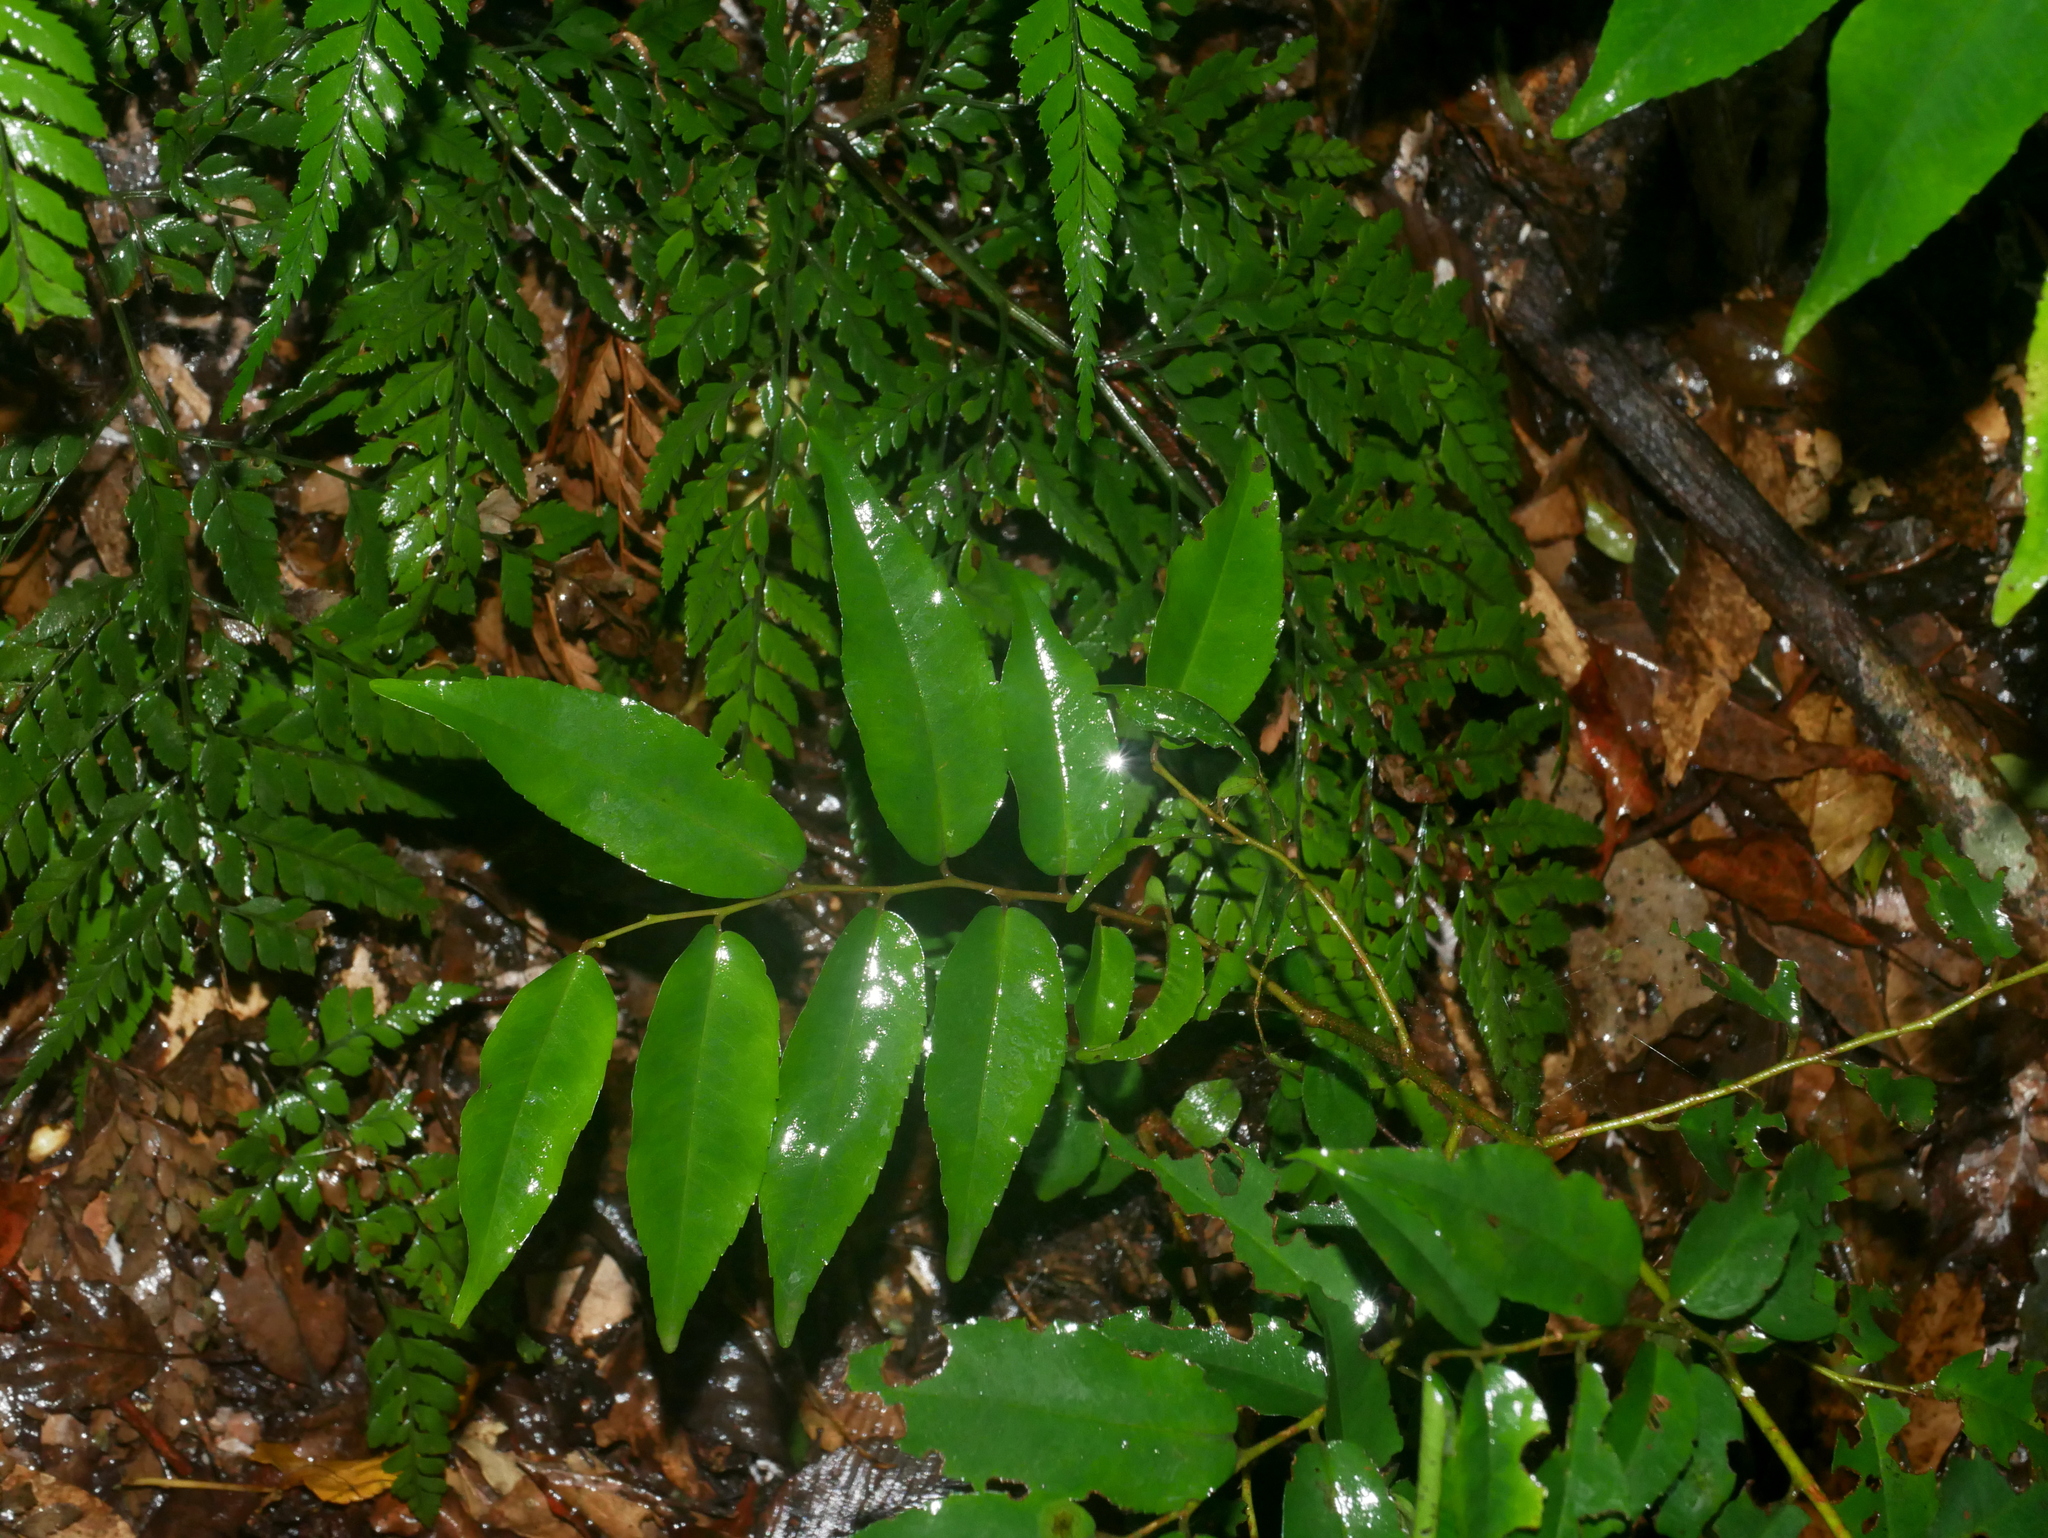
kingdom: Plantae
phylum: Tracheophyta
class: Magnoliopsida
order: Ericales
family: Primulaceae
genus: Embelia
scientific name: Embelia vestita
